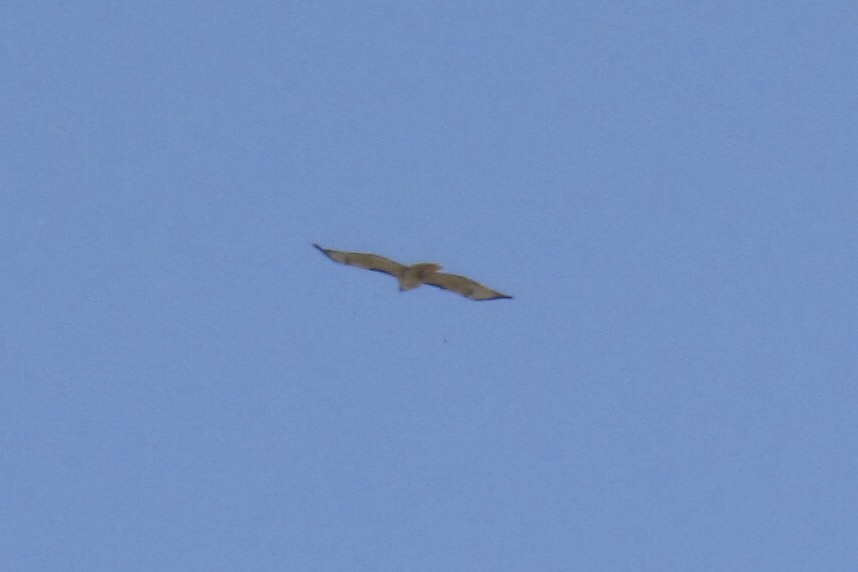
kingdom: Animalia
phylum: Chordata
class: Aves
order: Accipitriformes
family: Accipitridae
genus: Buteo
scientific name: Buteo jamaicensis
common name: Red-tailed hawk
